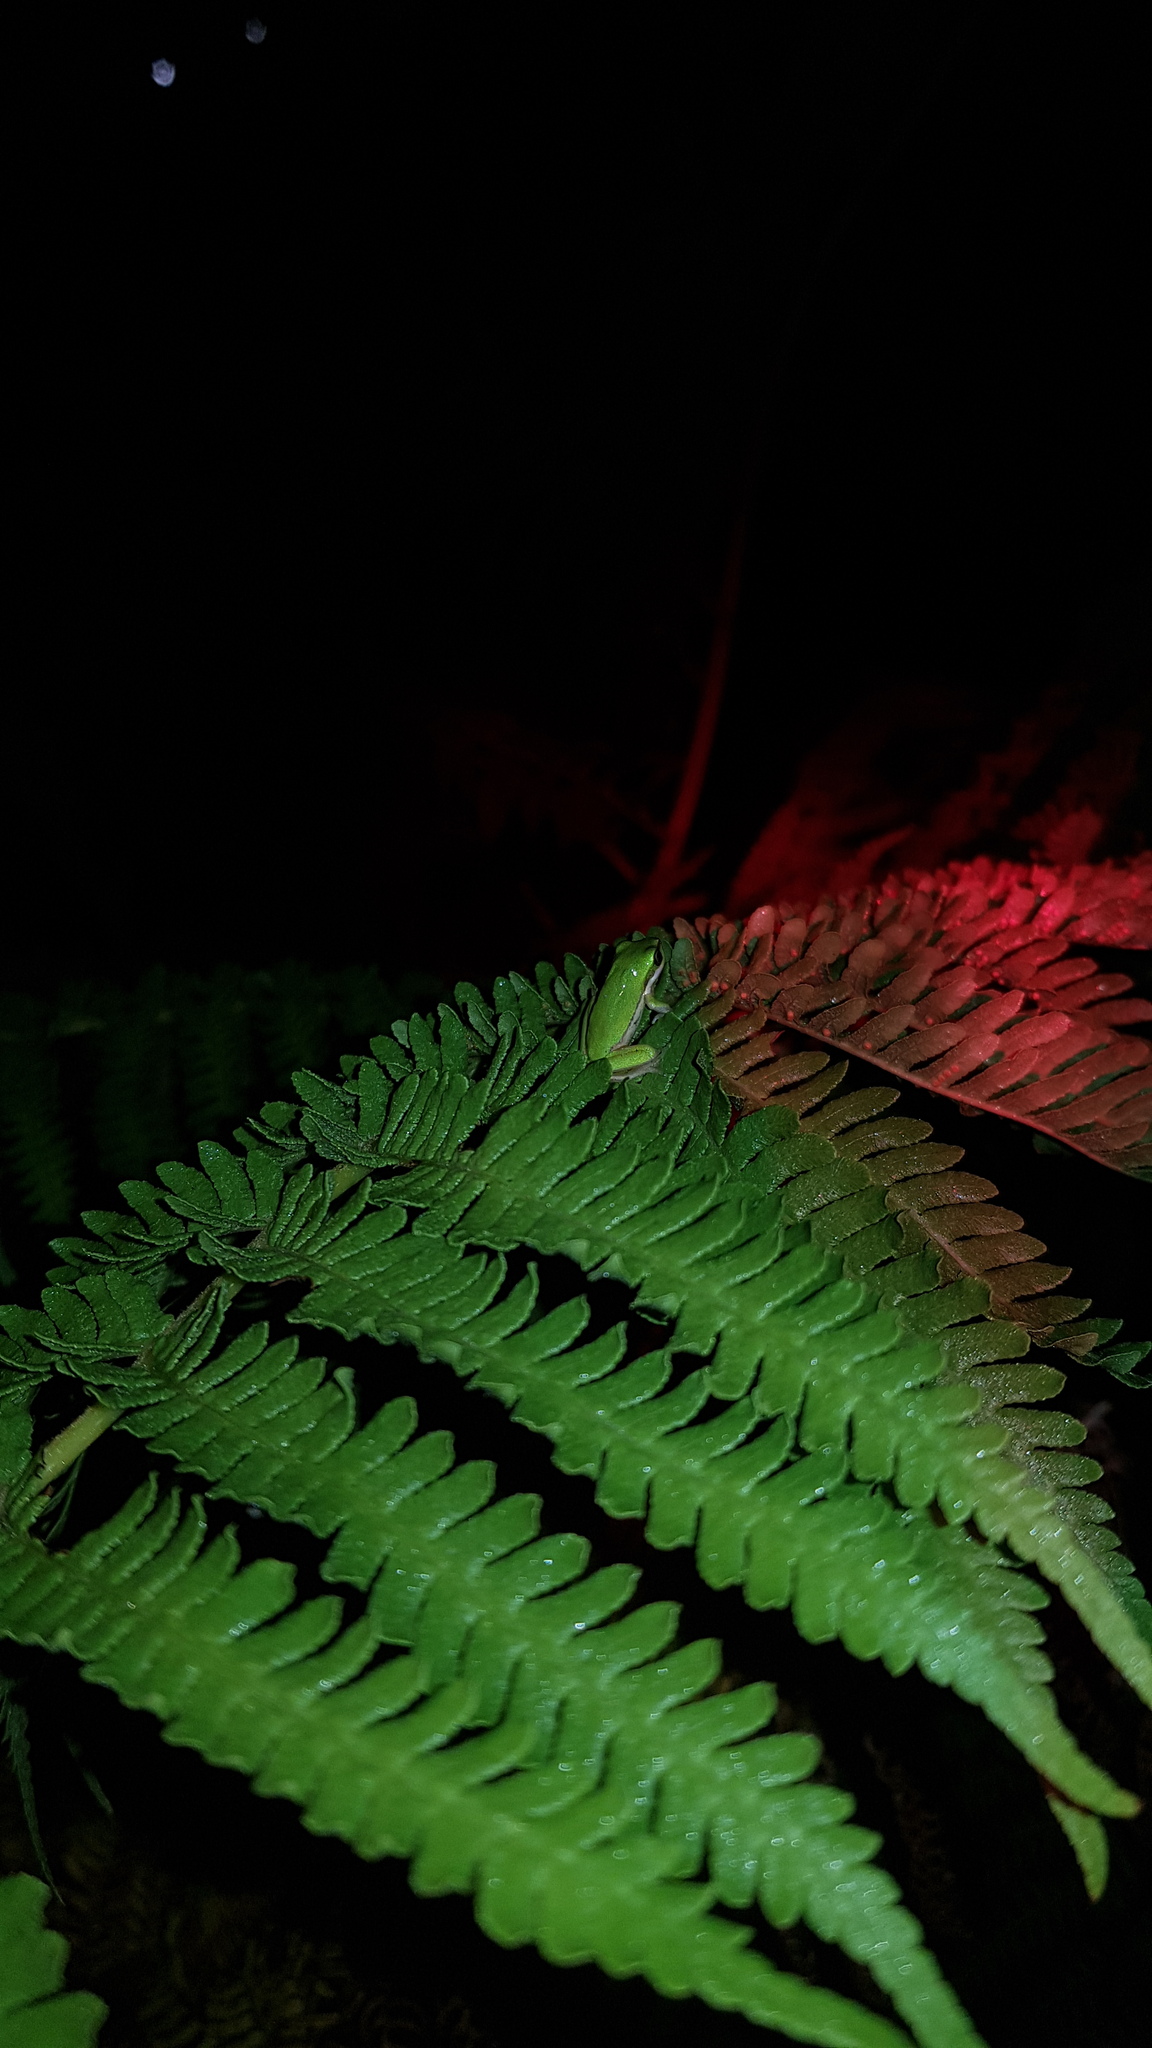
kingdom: Animalia
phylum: Chordata
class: Amphibia
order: Anura
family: Pelodryadidae
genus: Litoria
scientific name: Litoria fallax
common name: Eastern dwarf treefrog
